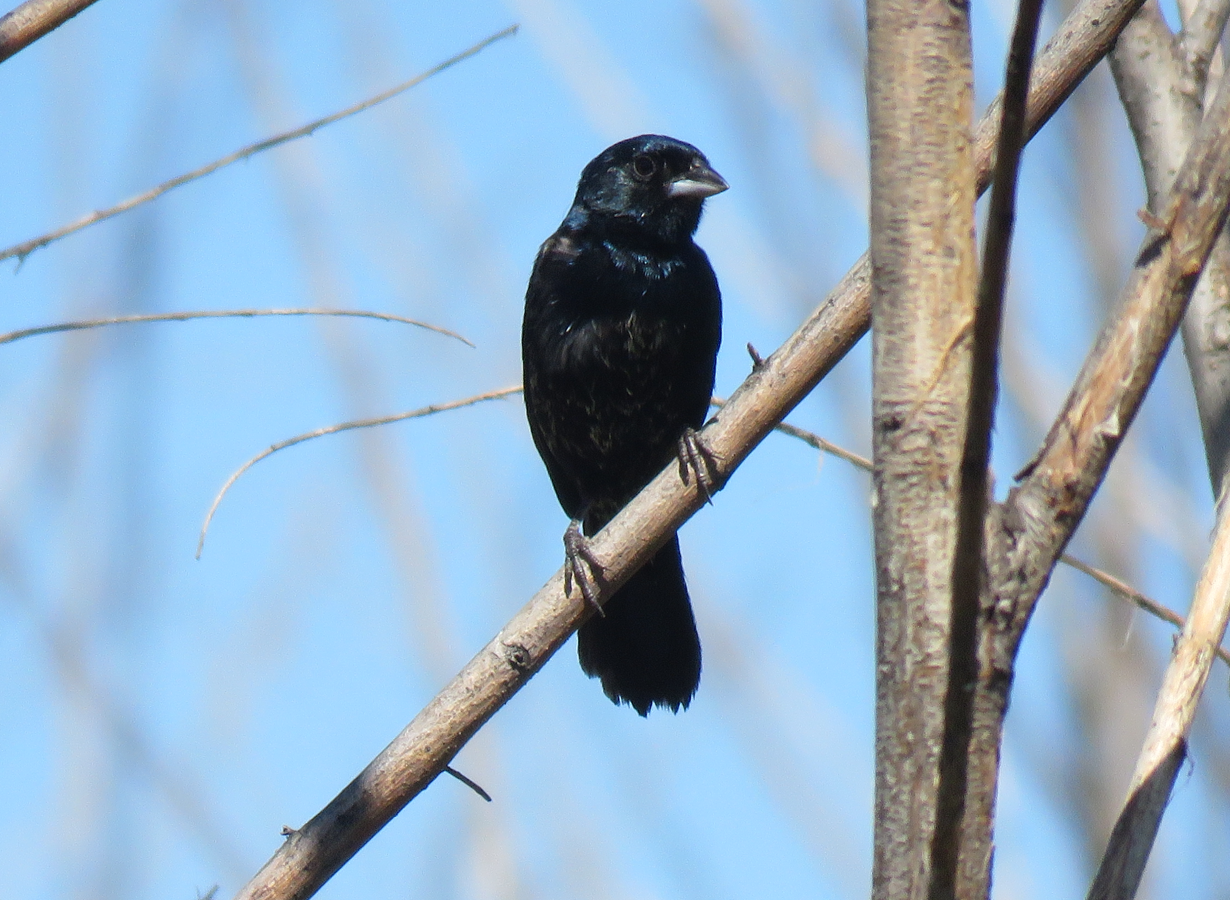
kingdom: Animalia
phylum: Chordata
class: Aves
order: Passeriformes
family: Thraupidae
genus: Volatinia
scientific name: Volatinia jacarina
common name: Blue-black grassquit
